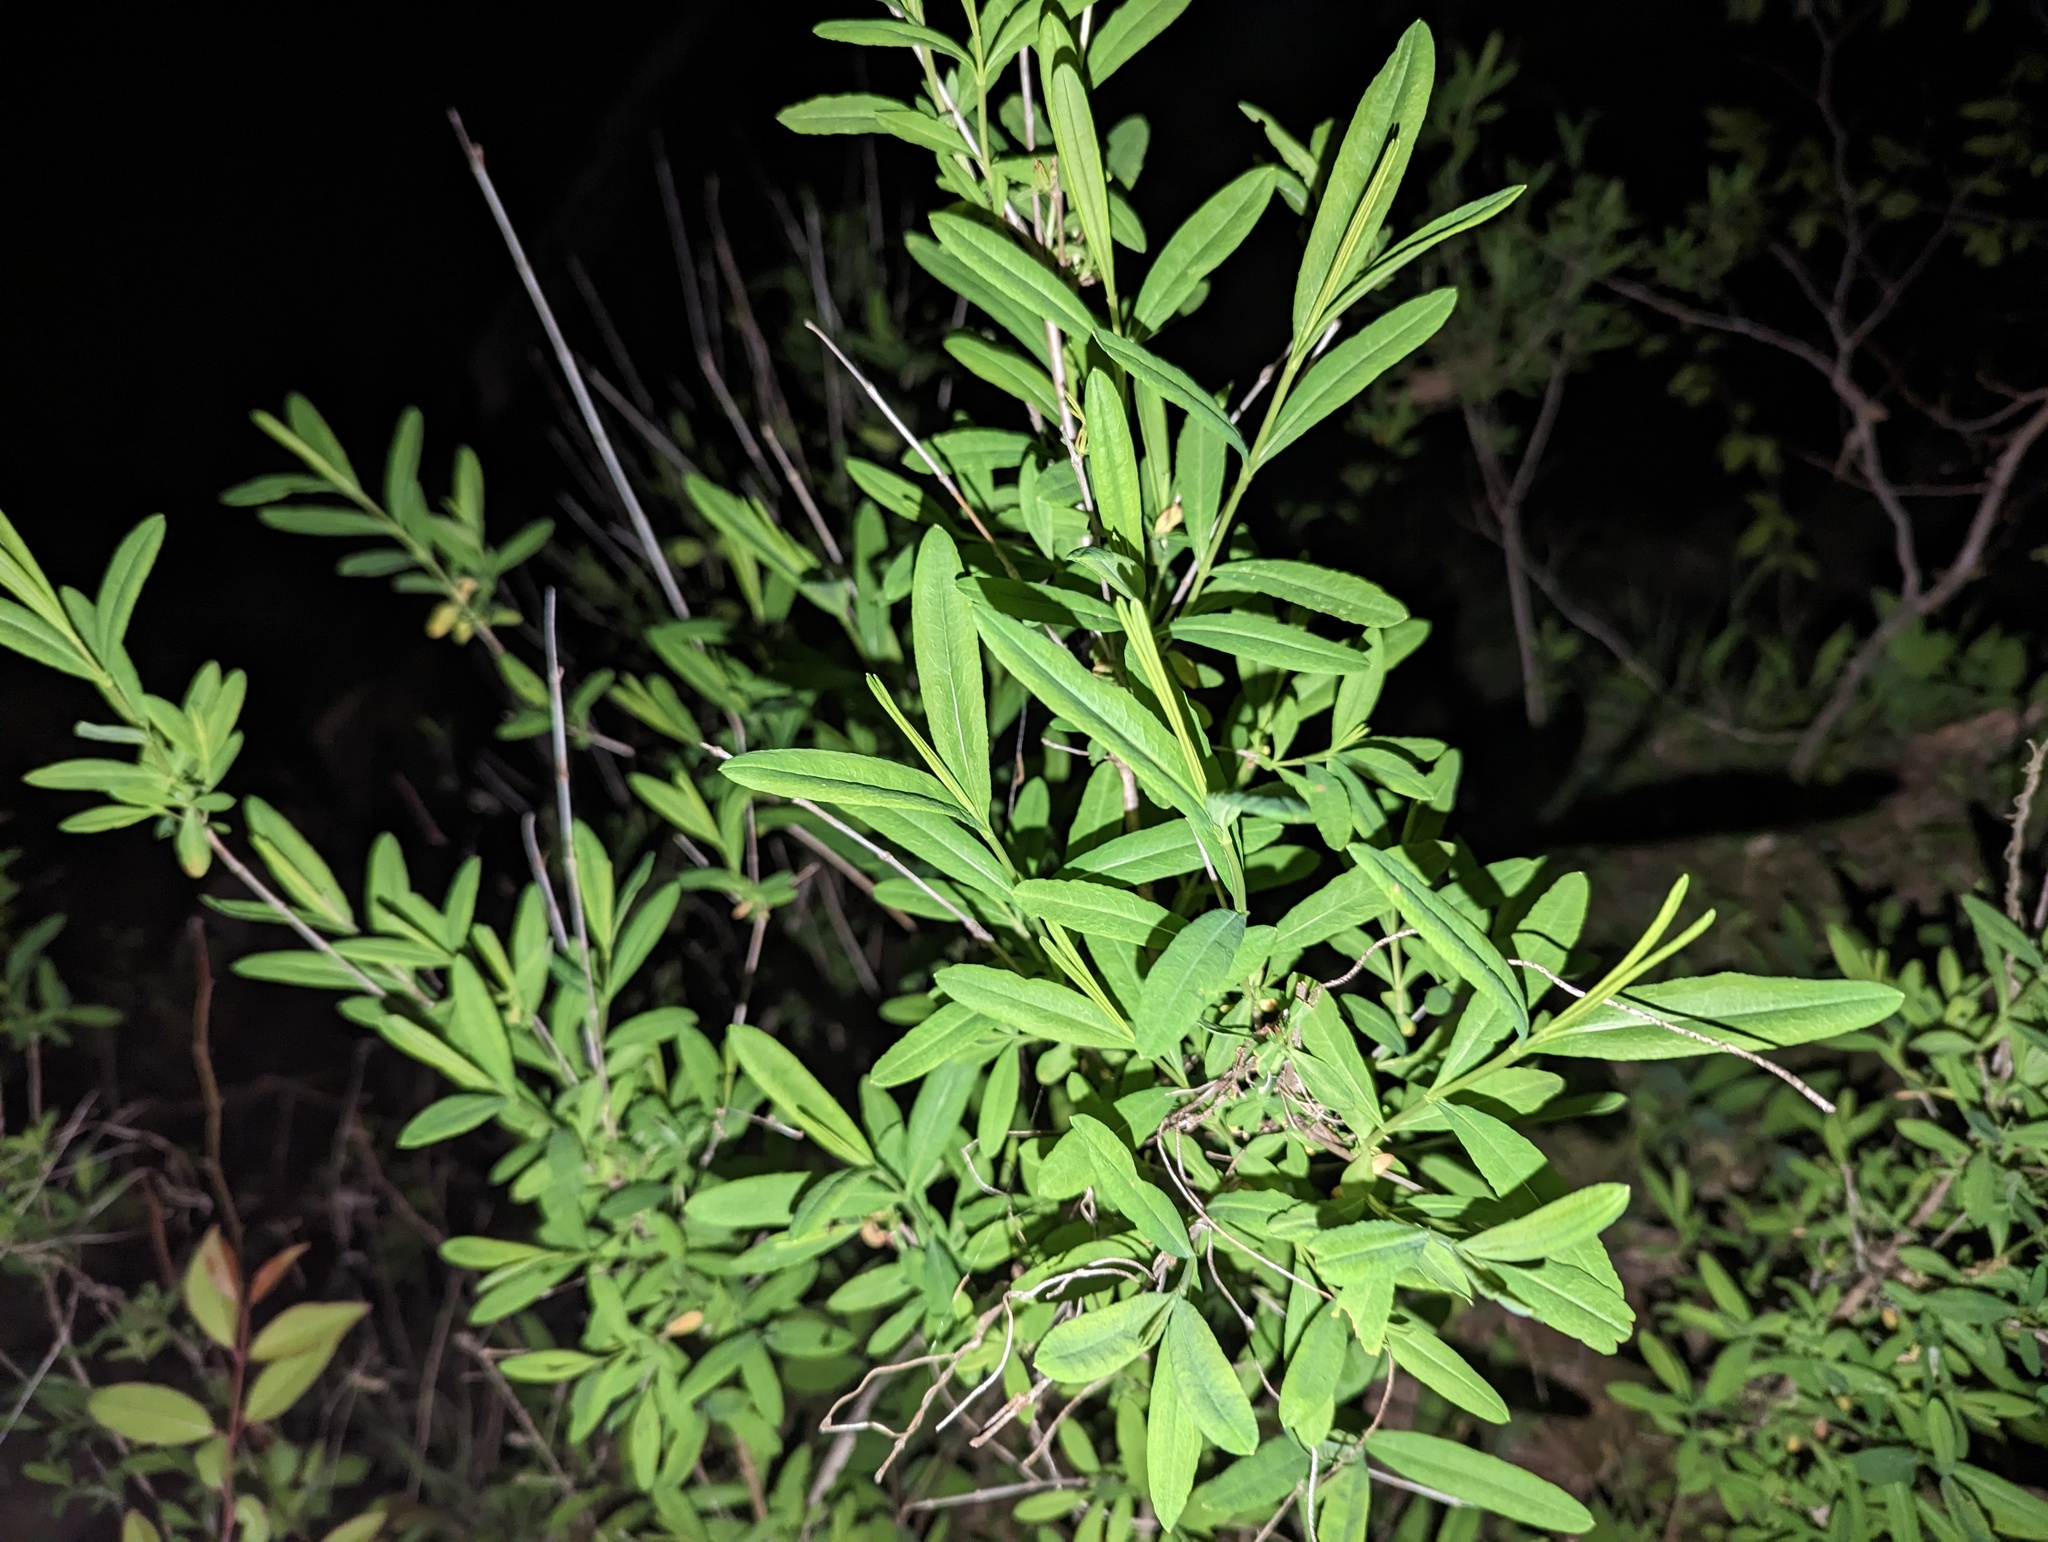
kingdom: Plantae
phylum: Tracheophyta
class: Magnoliopsida
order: Malpighiales
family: Hypericaceae
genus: Hypericum
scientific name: Hypericum prolificum
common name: Shrubby st. john's-wort
